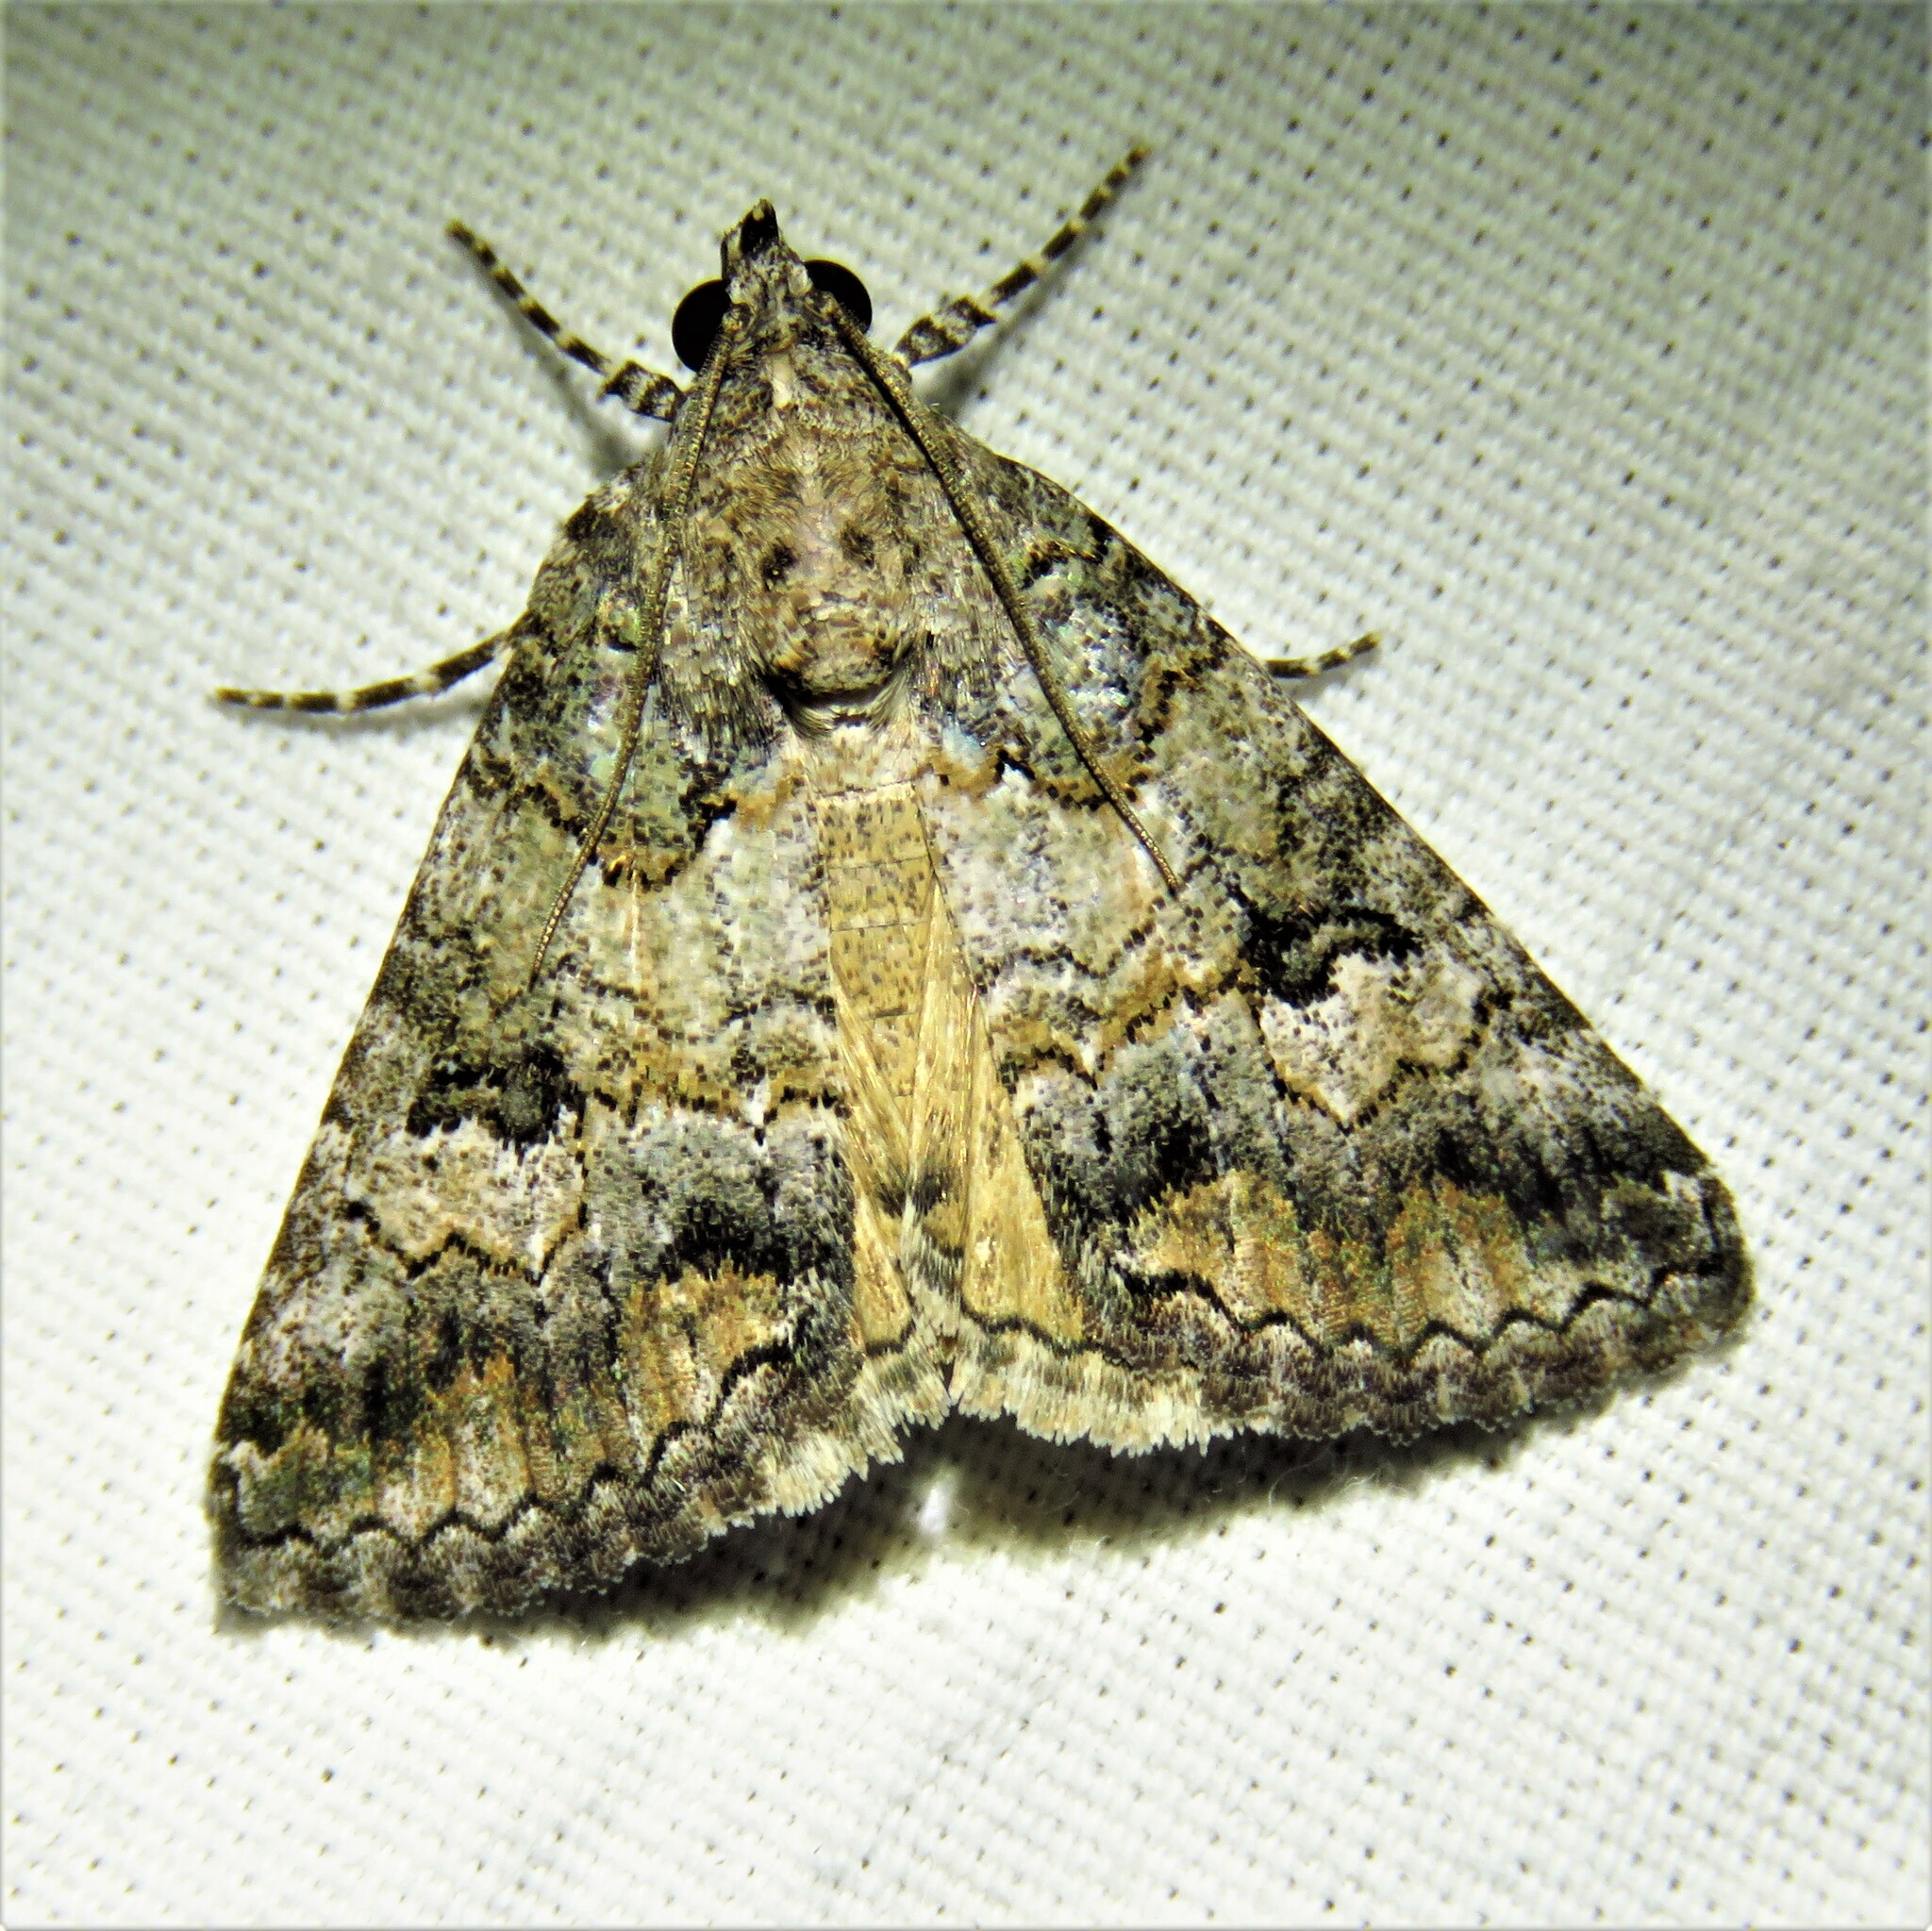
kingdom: Animalia
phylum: Arthropoda
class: Insecta
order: Lepidoptera
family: Erebidae
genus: Eubolina
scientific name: Eubolina impartialis
